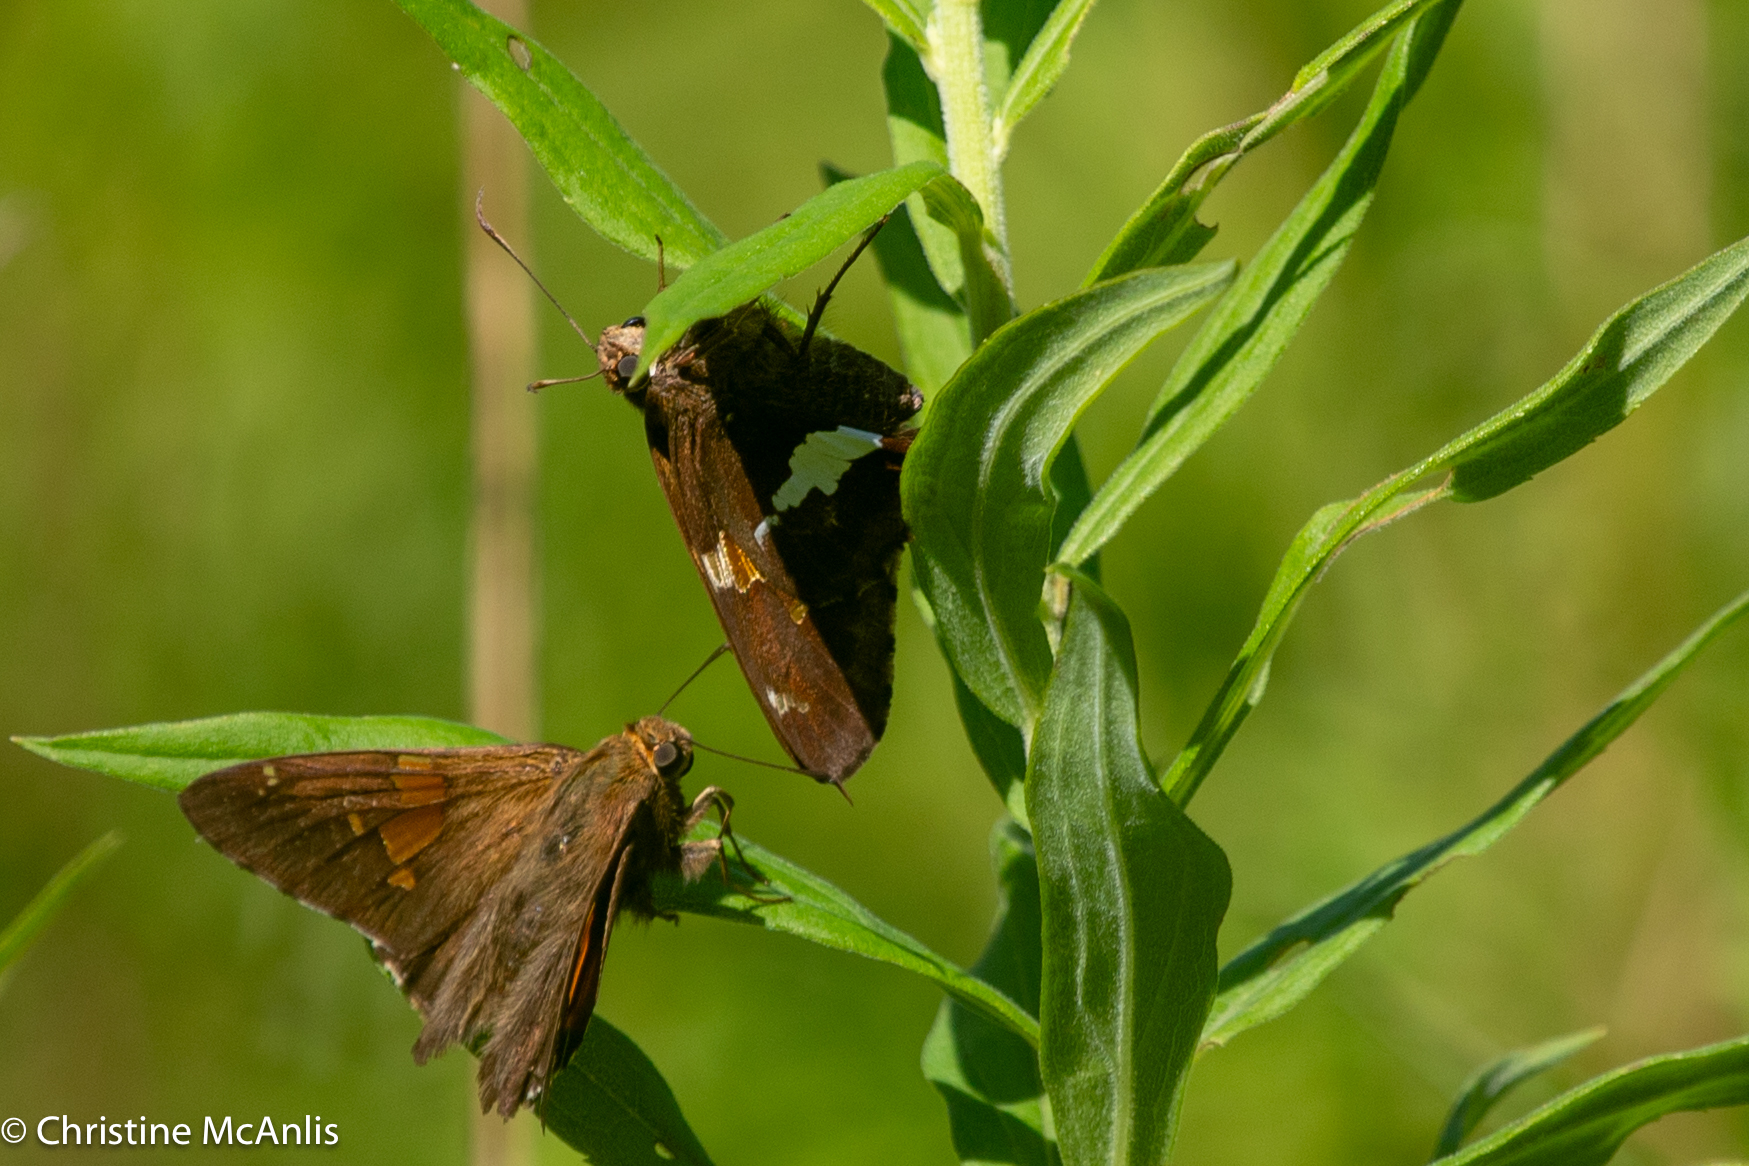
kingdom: Animalia
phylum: Arthropoda
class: Insecta
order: Lepidoptera
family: Hesperiidae
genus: Epargyreus
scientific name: Epargyreus clarus
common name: Silver-spotted skipper
